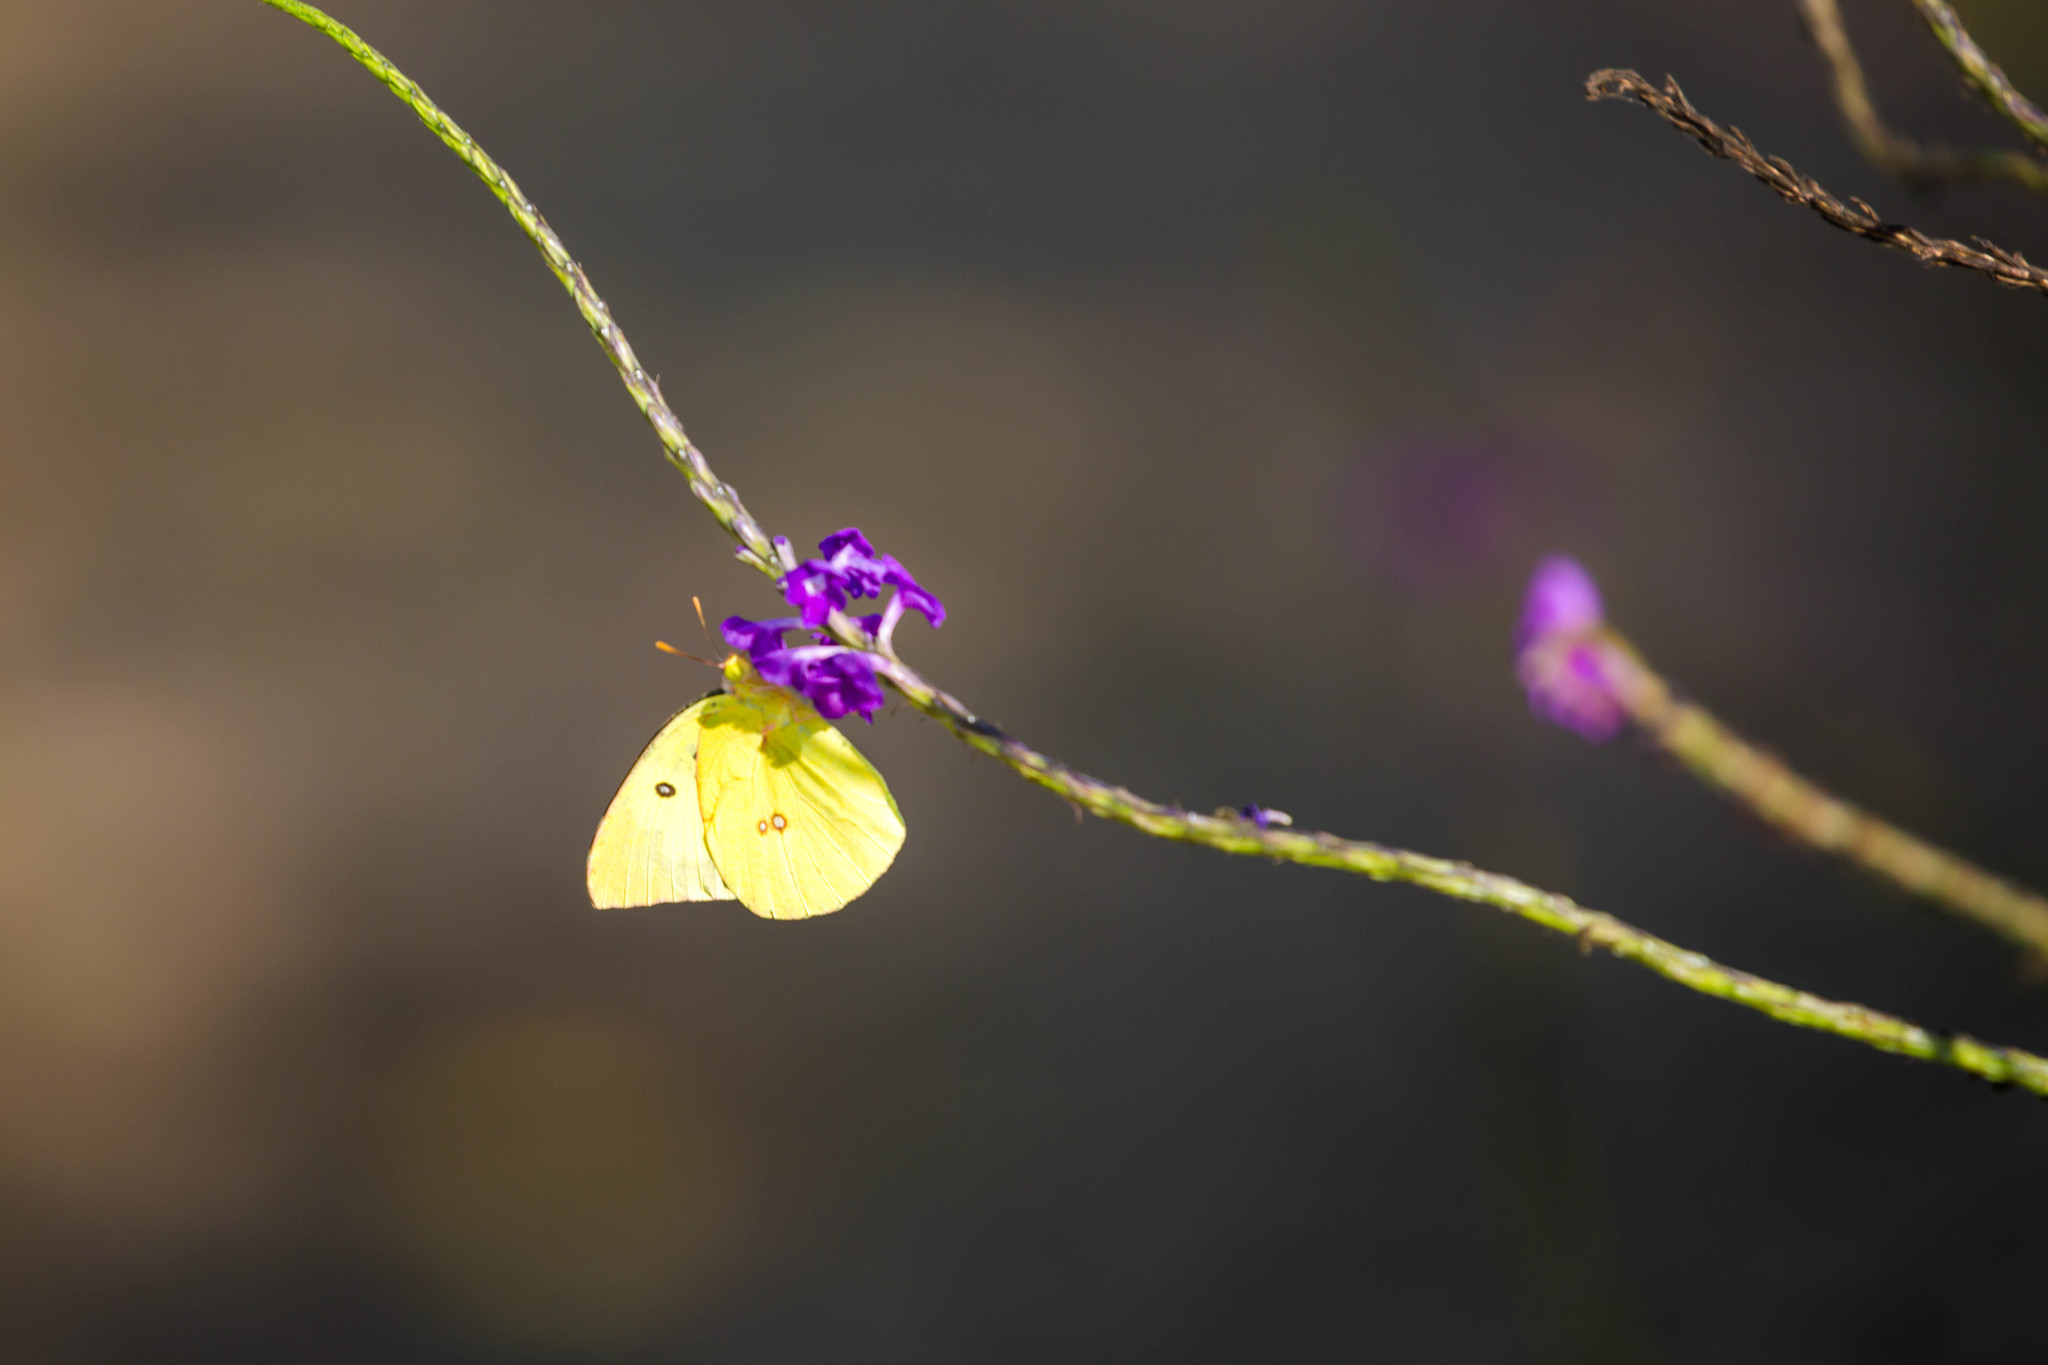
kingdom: Animalia
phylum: Arthropoda
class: Insecta
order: Lepidoptera
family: Pieridae
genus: Zerene
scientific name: Zerene cesonia
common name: Southern dogface
